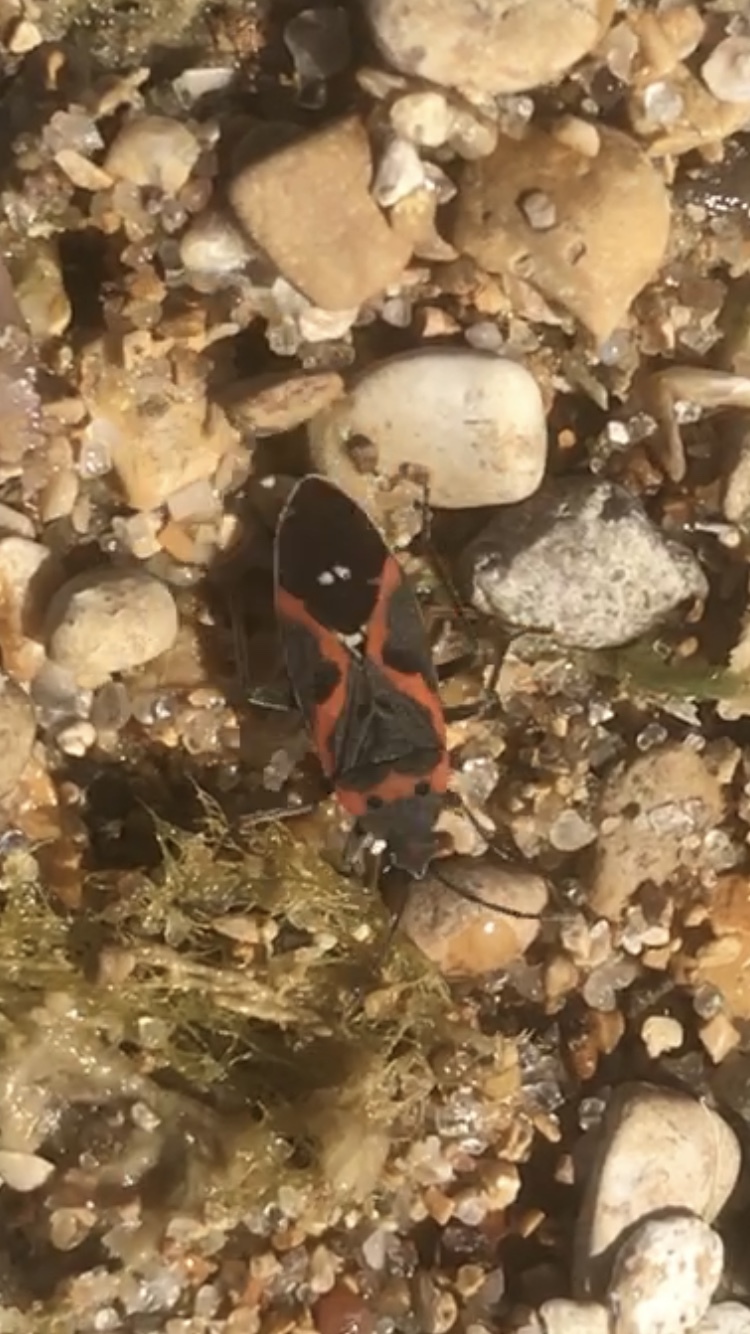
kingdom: Animalia
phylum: Arthropoda
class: Insecta
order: Hemiptera
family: Lygaeidae
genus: Lygaeus
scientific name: Lygaeus kalmii
